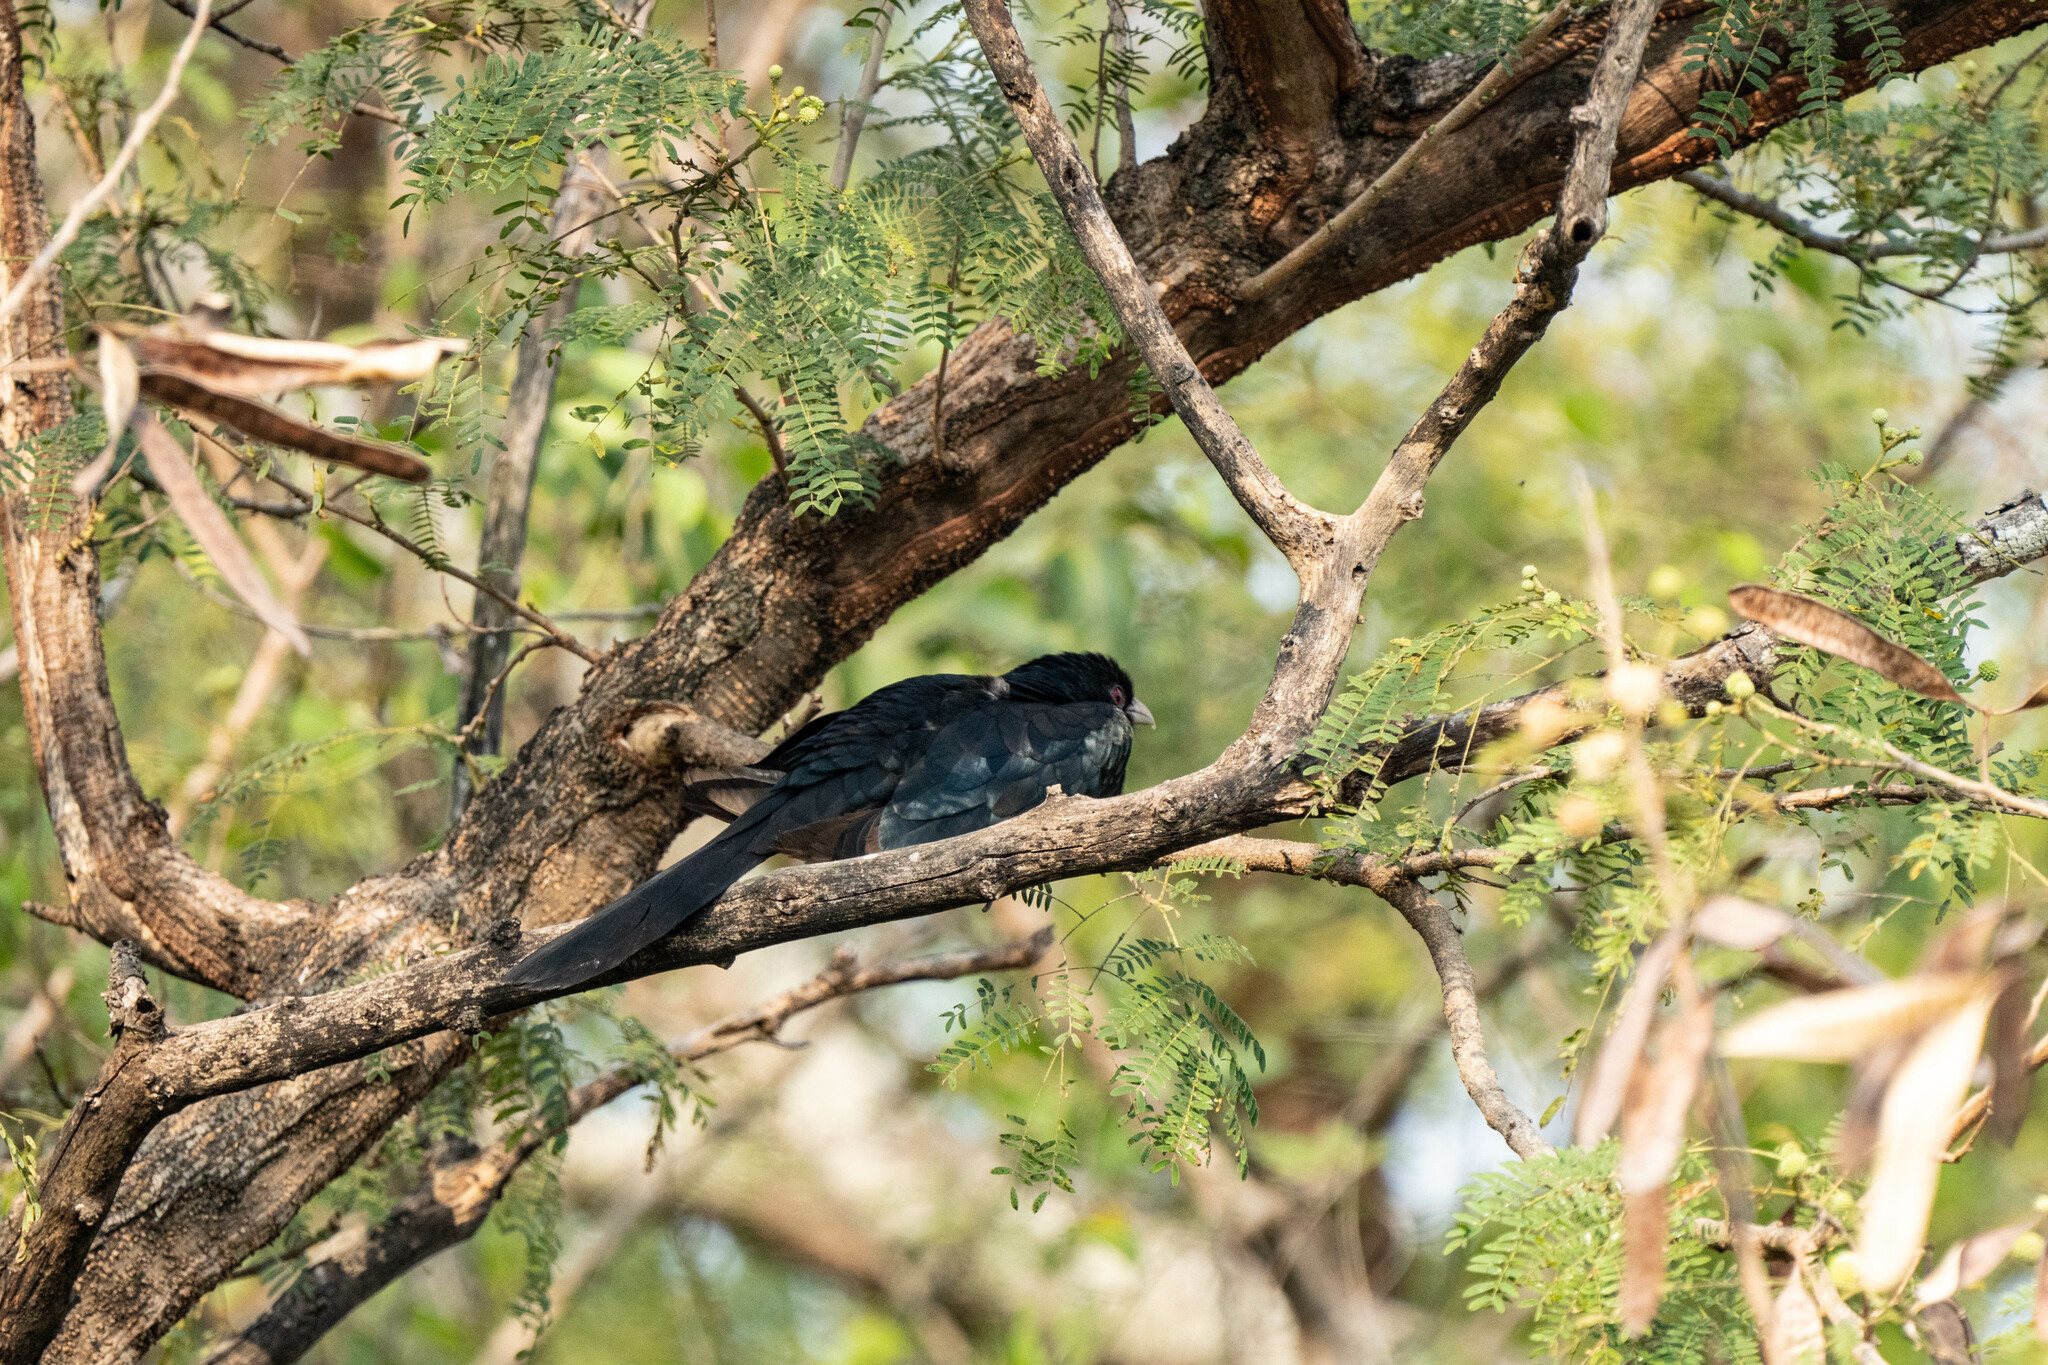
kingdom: Animalia
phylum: Chordata
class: Aves
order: Cuculiformes
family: Cuculidae
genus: Eudynamys
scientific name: Eudynamys scolopaceus
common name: Asian koel
